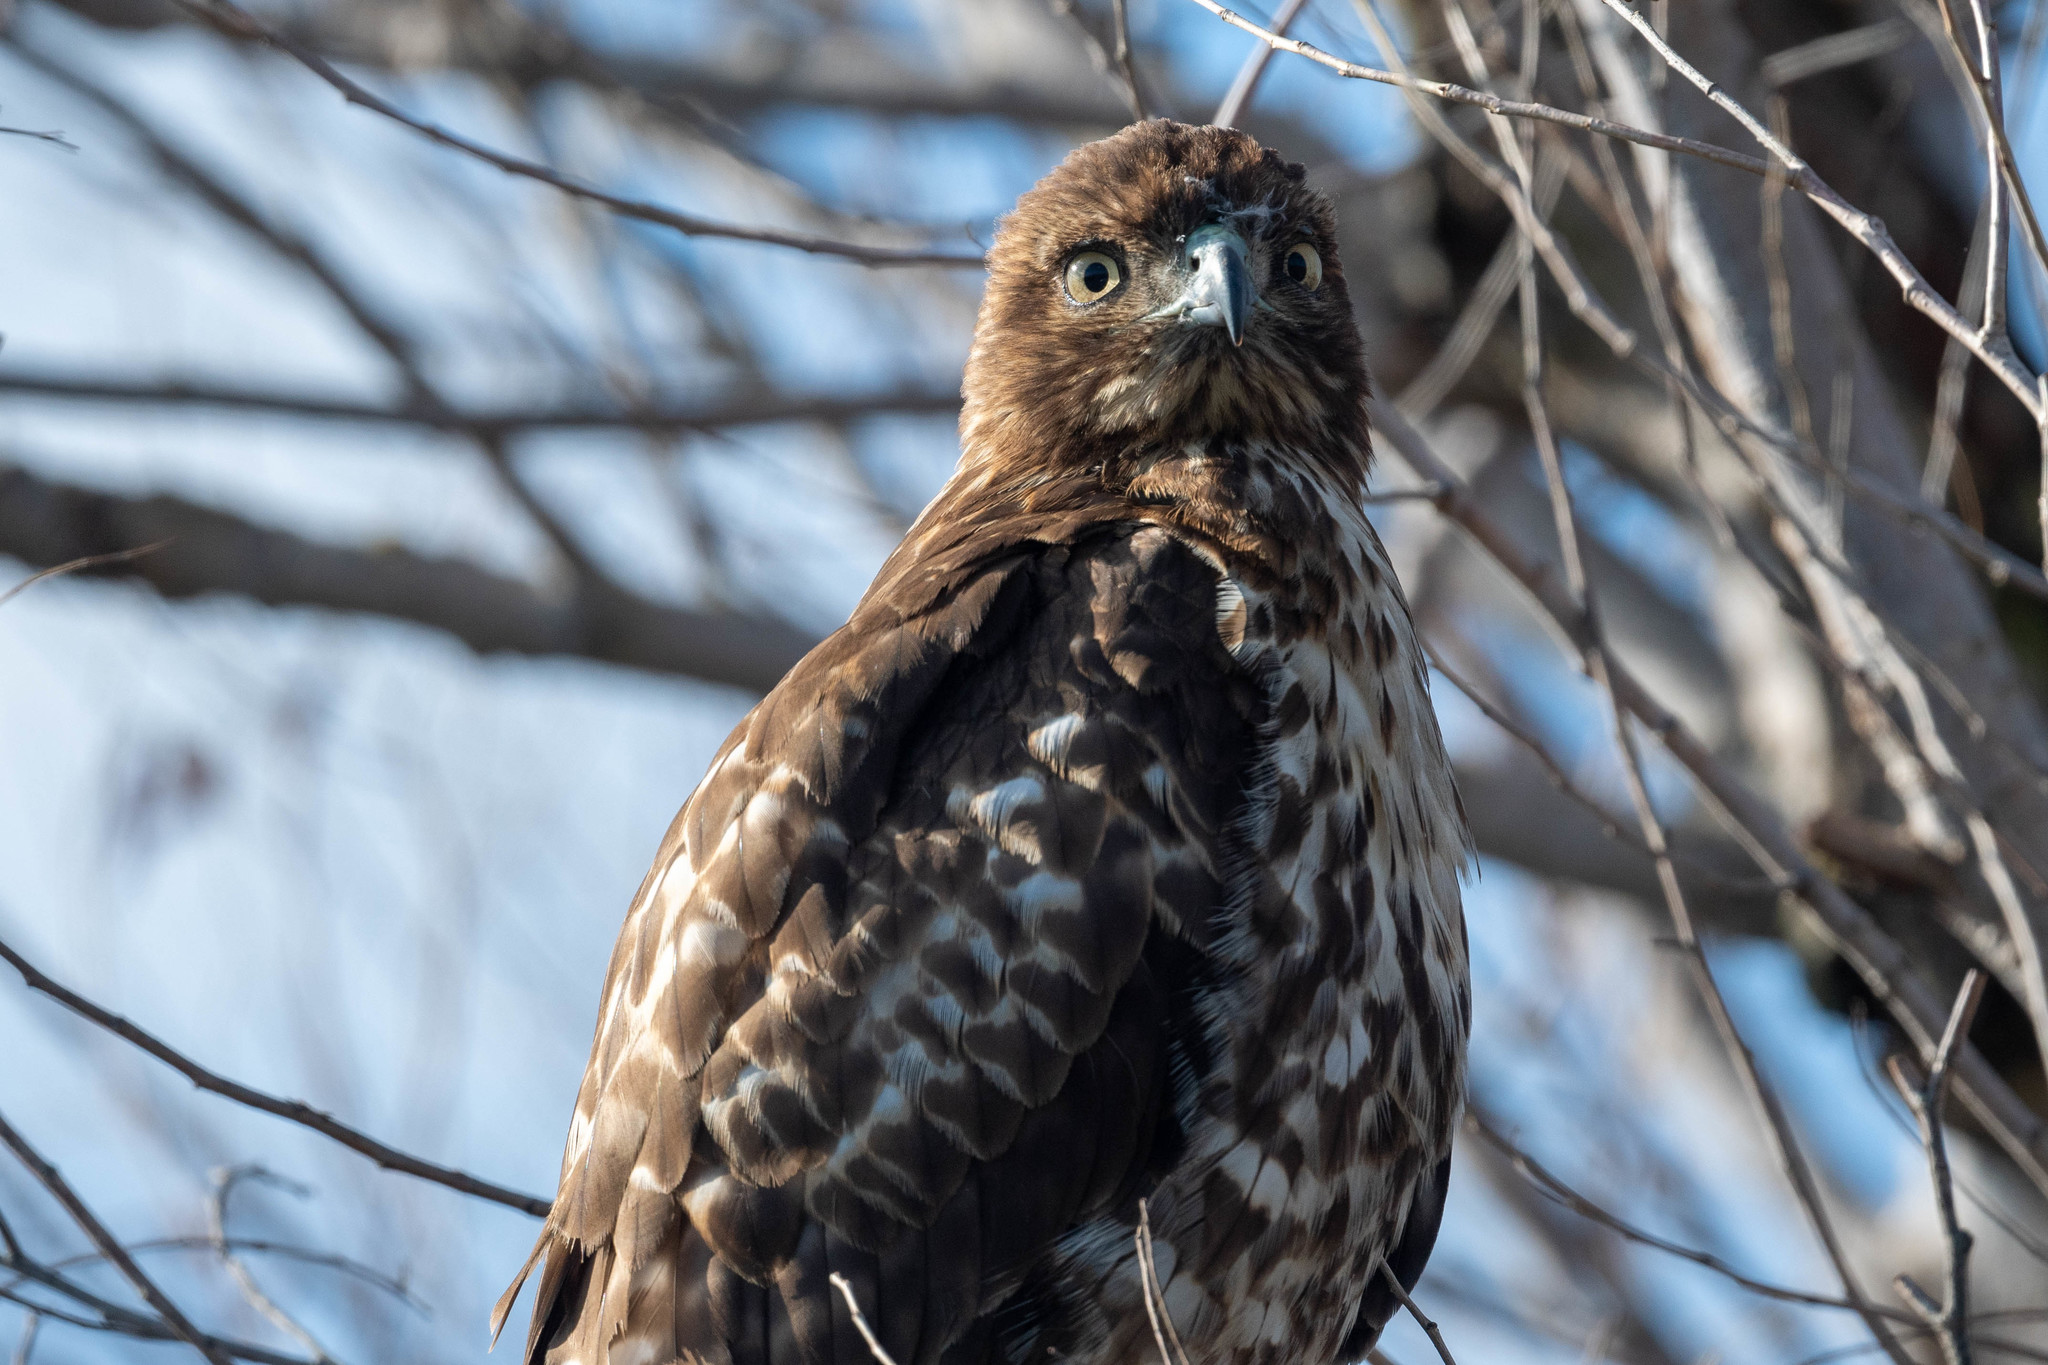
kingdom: Animalia
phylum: Chordata
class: Aves
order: Accipitriformes
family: Accipitridae
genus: Buteo
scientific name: Buteo jamaicensis
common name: Red-tailed hawk
